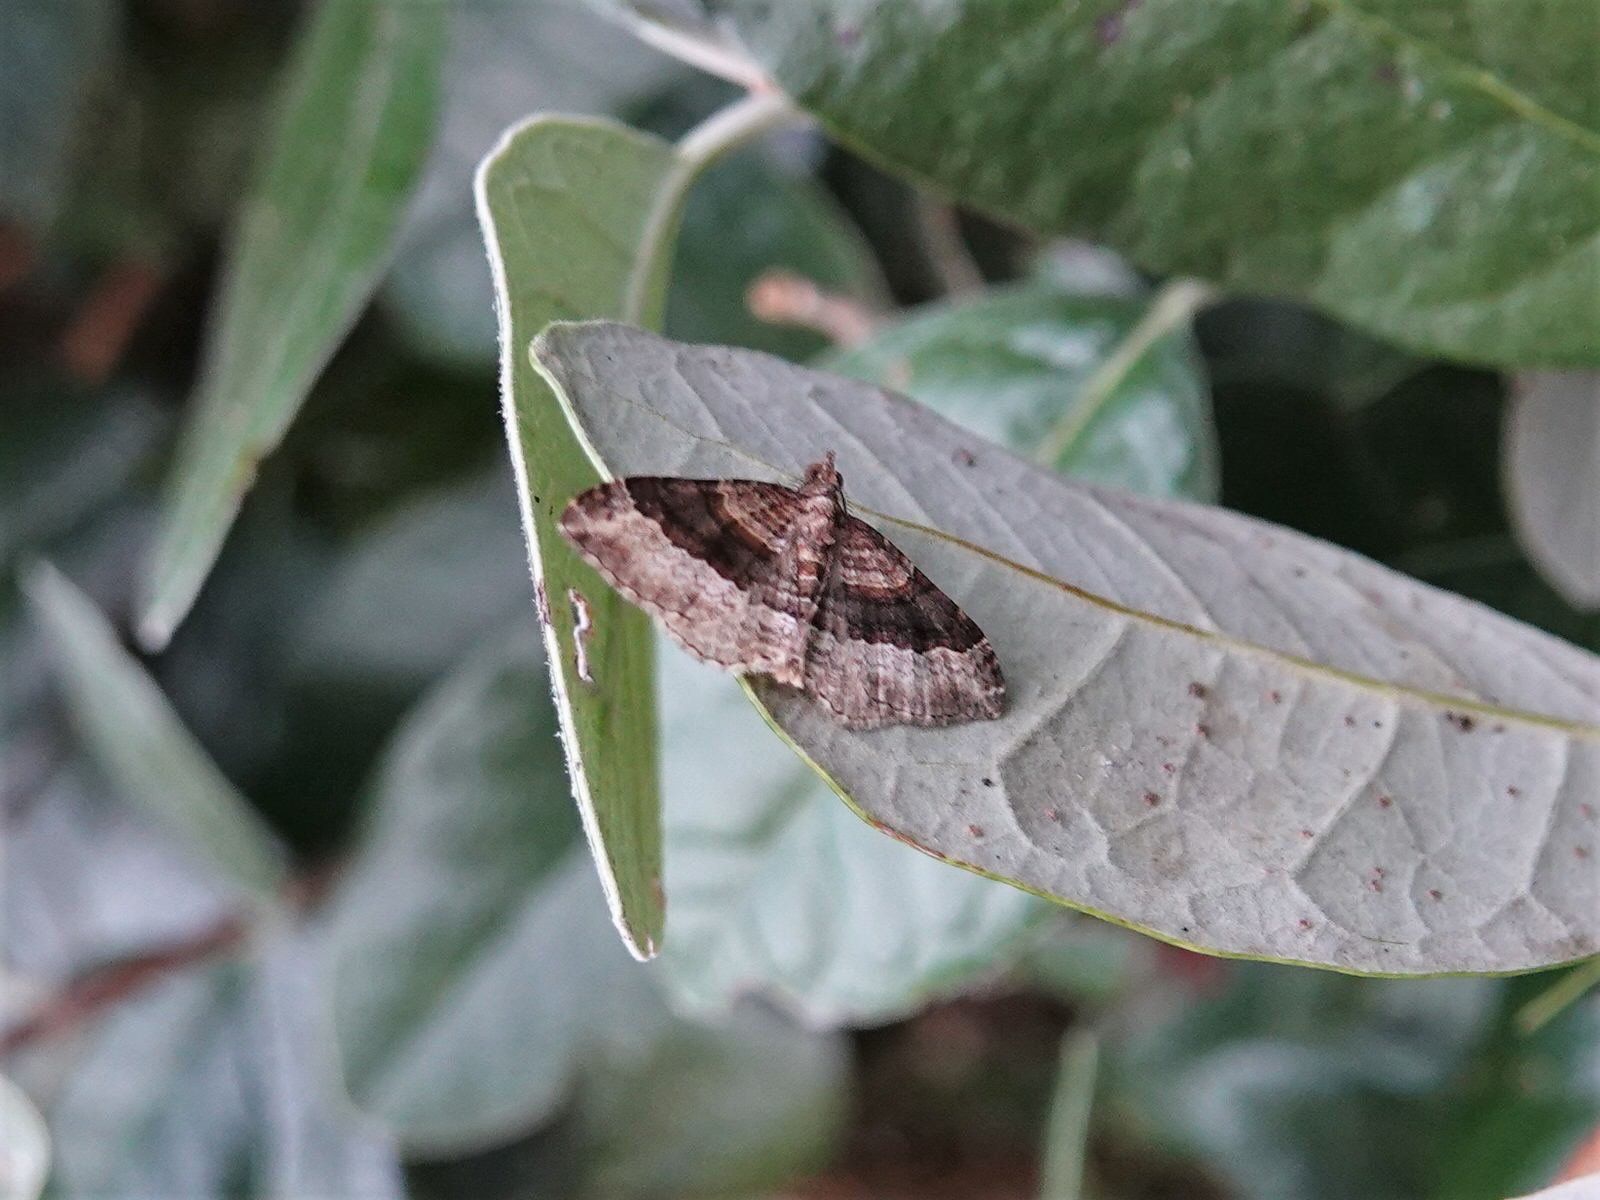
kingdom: Animalia
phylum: Arthropoda
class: Insecta
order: Lepidoptera
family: Geometridae
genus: Epyaxa
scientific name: Epyaxa lucidata
